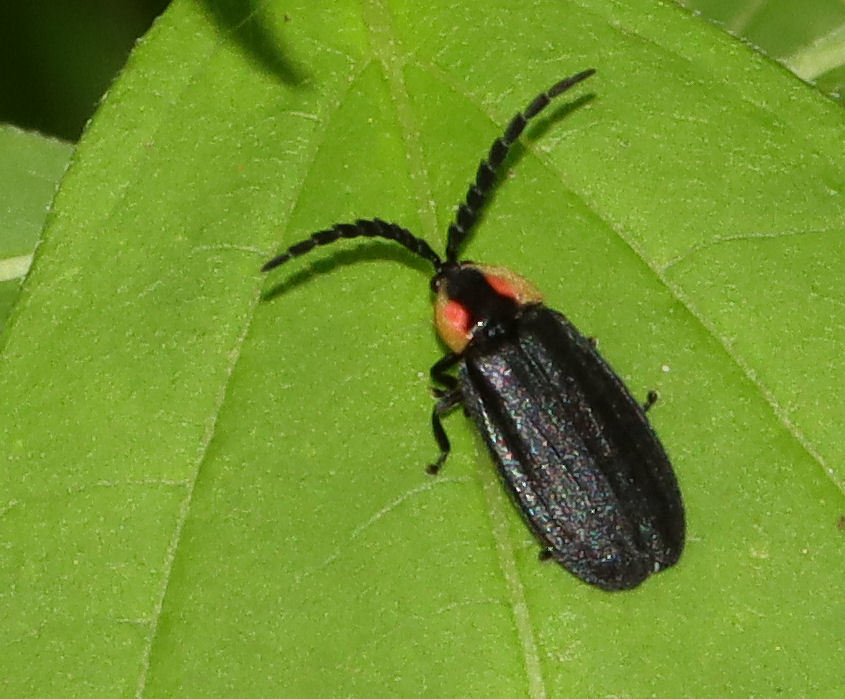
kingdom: Animalia
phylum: Arthropoda
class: Insecta
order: Coleoptera
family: Lampyridae
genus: Lucidota
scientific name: Lucidota atra
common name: Black firefly
